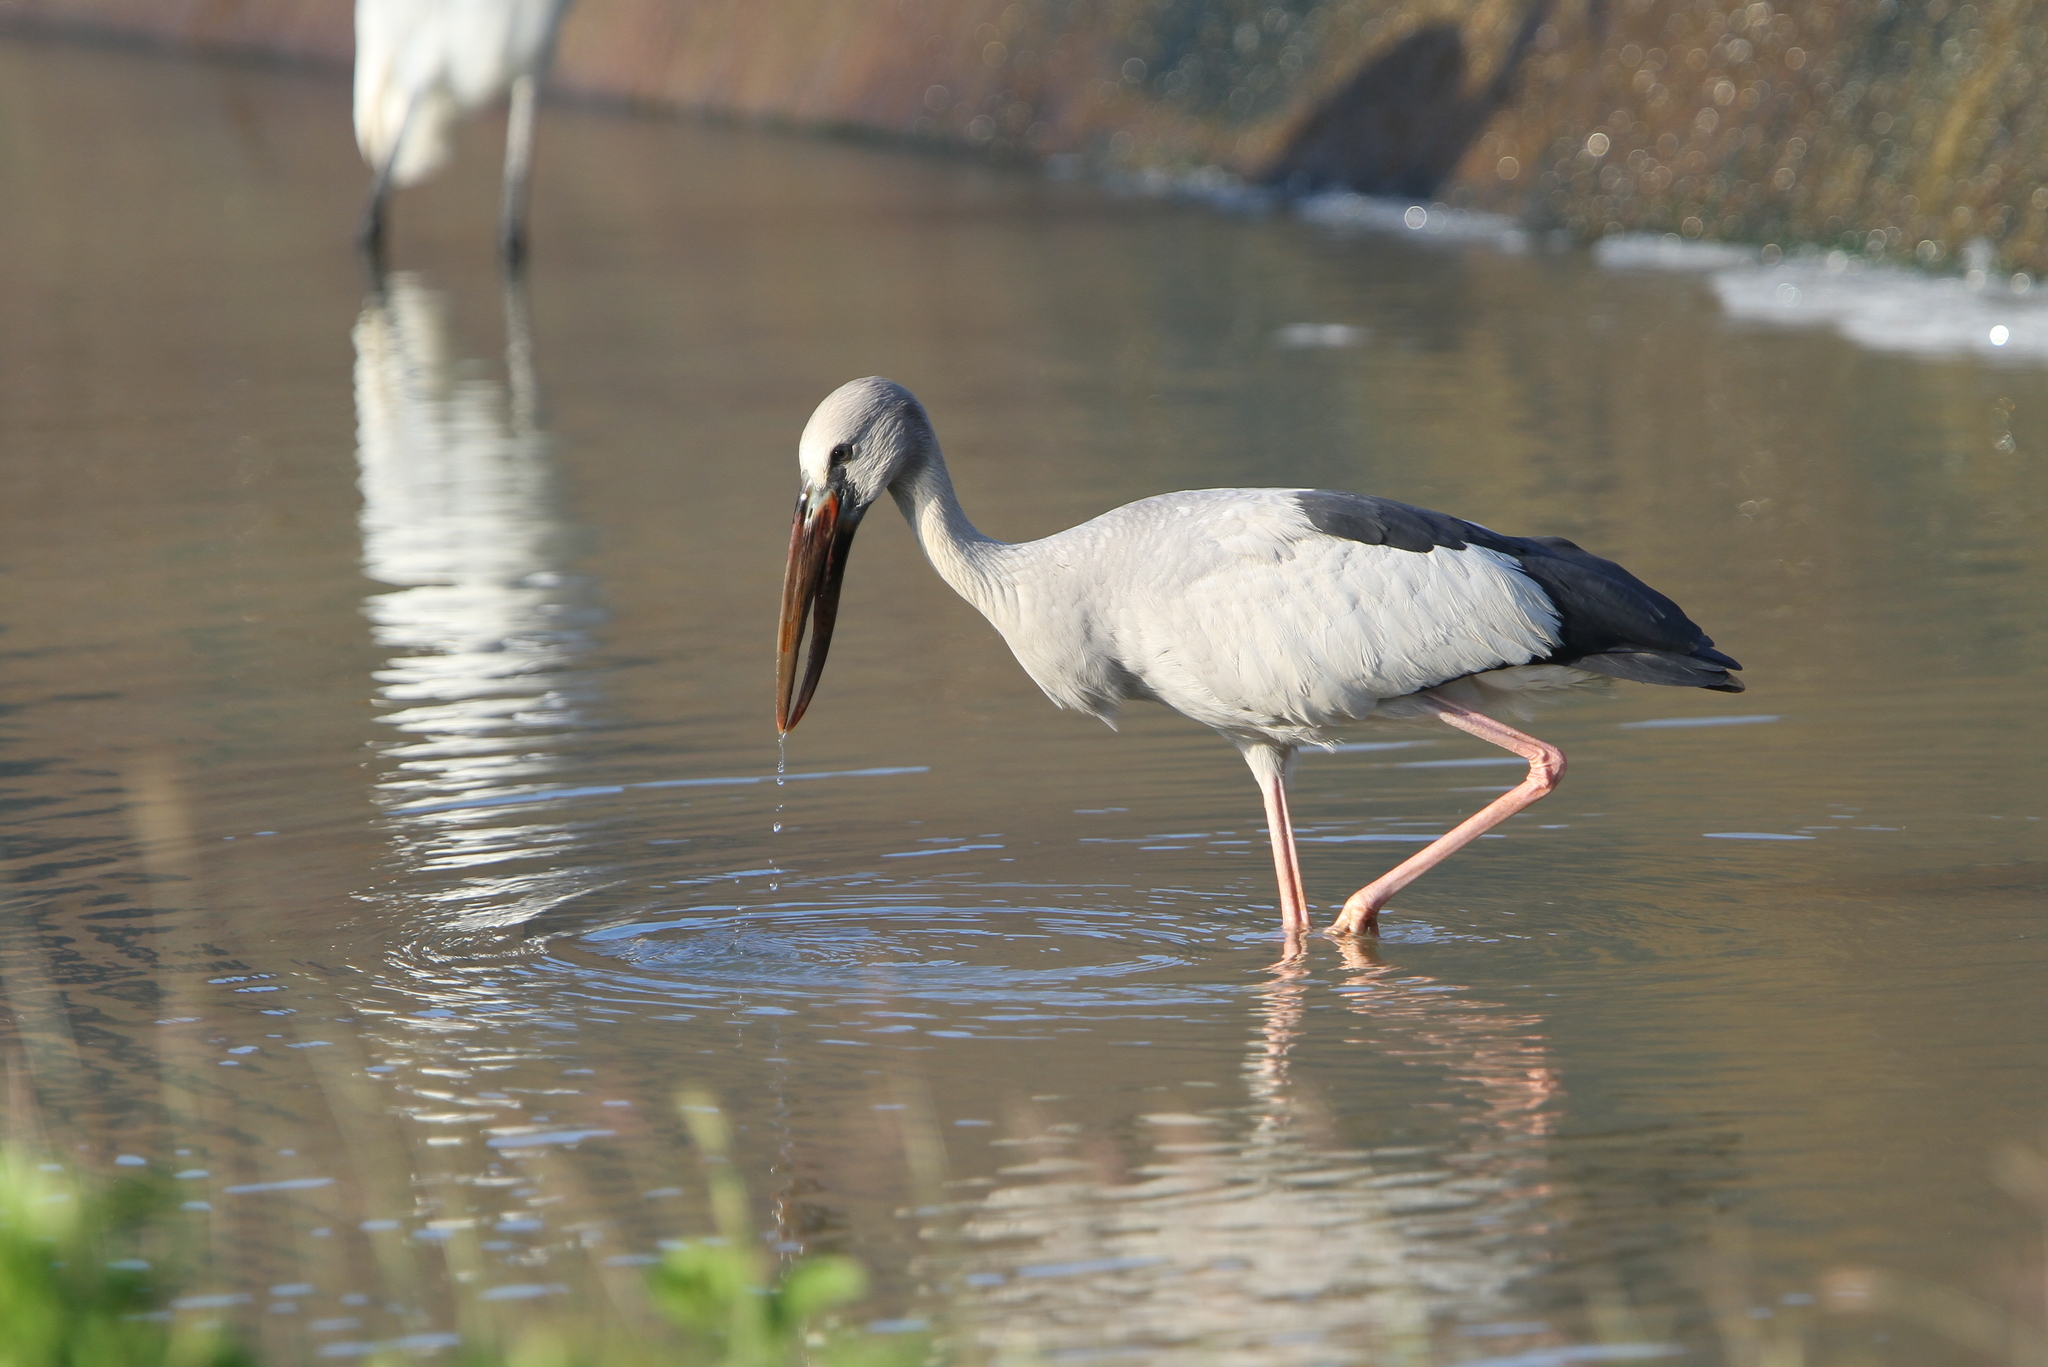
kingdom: Animalia
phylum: Chordata
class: Aves
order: Ciconiiformes
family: Ciconiidae
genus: Anastomus
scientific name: Anastomus oscitans
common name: Asian openbill
